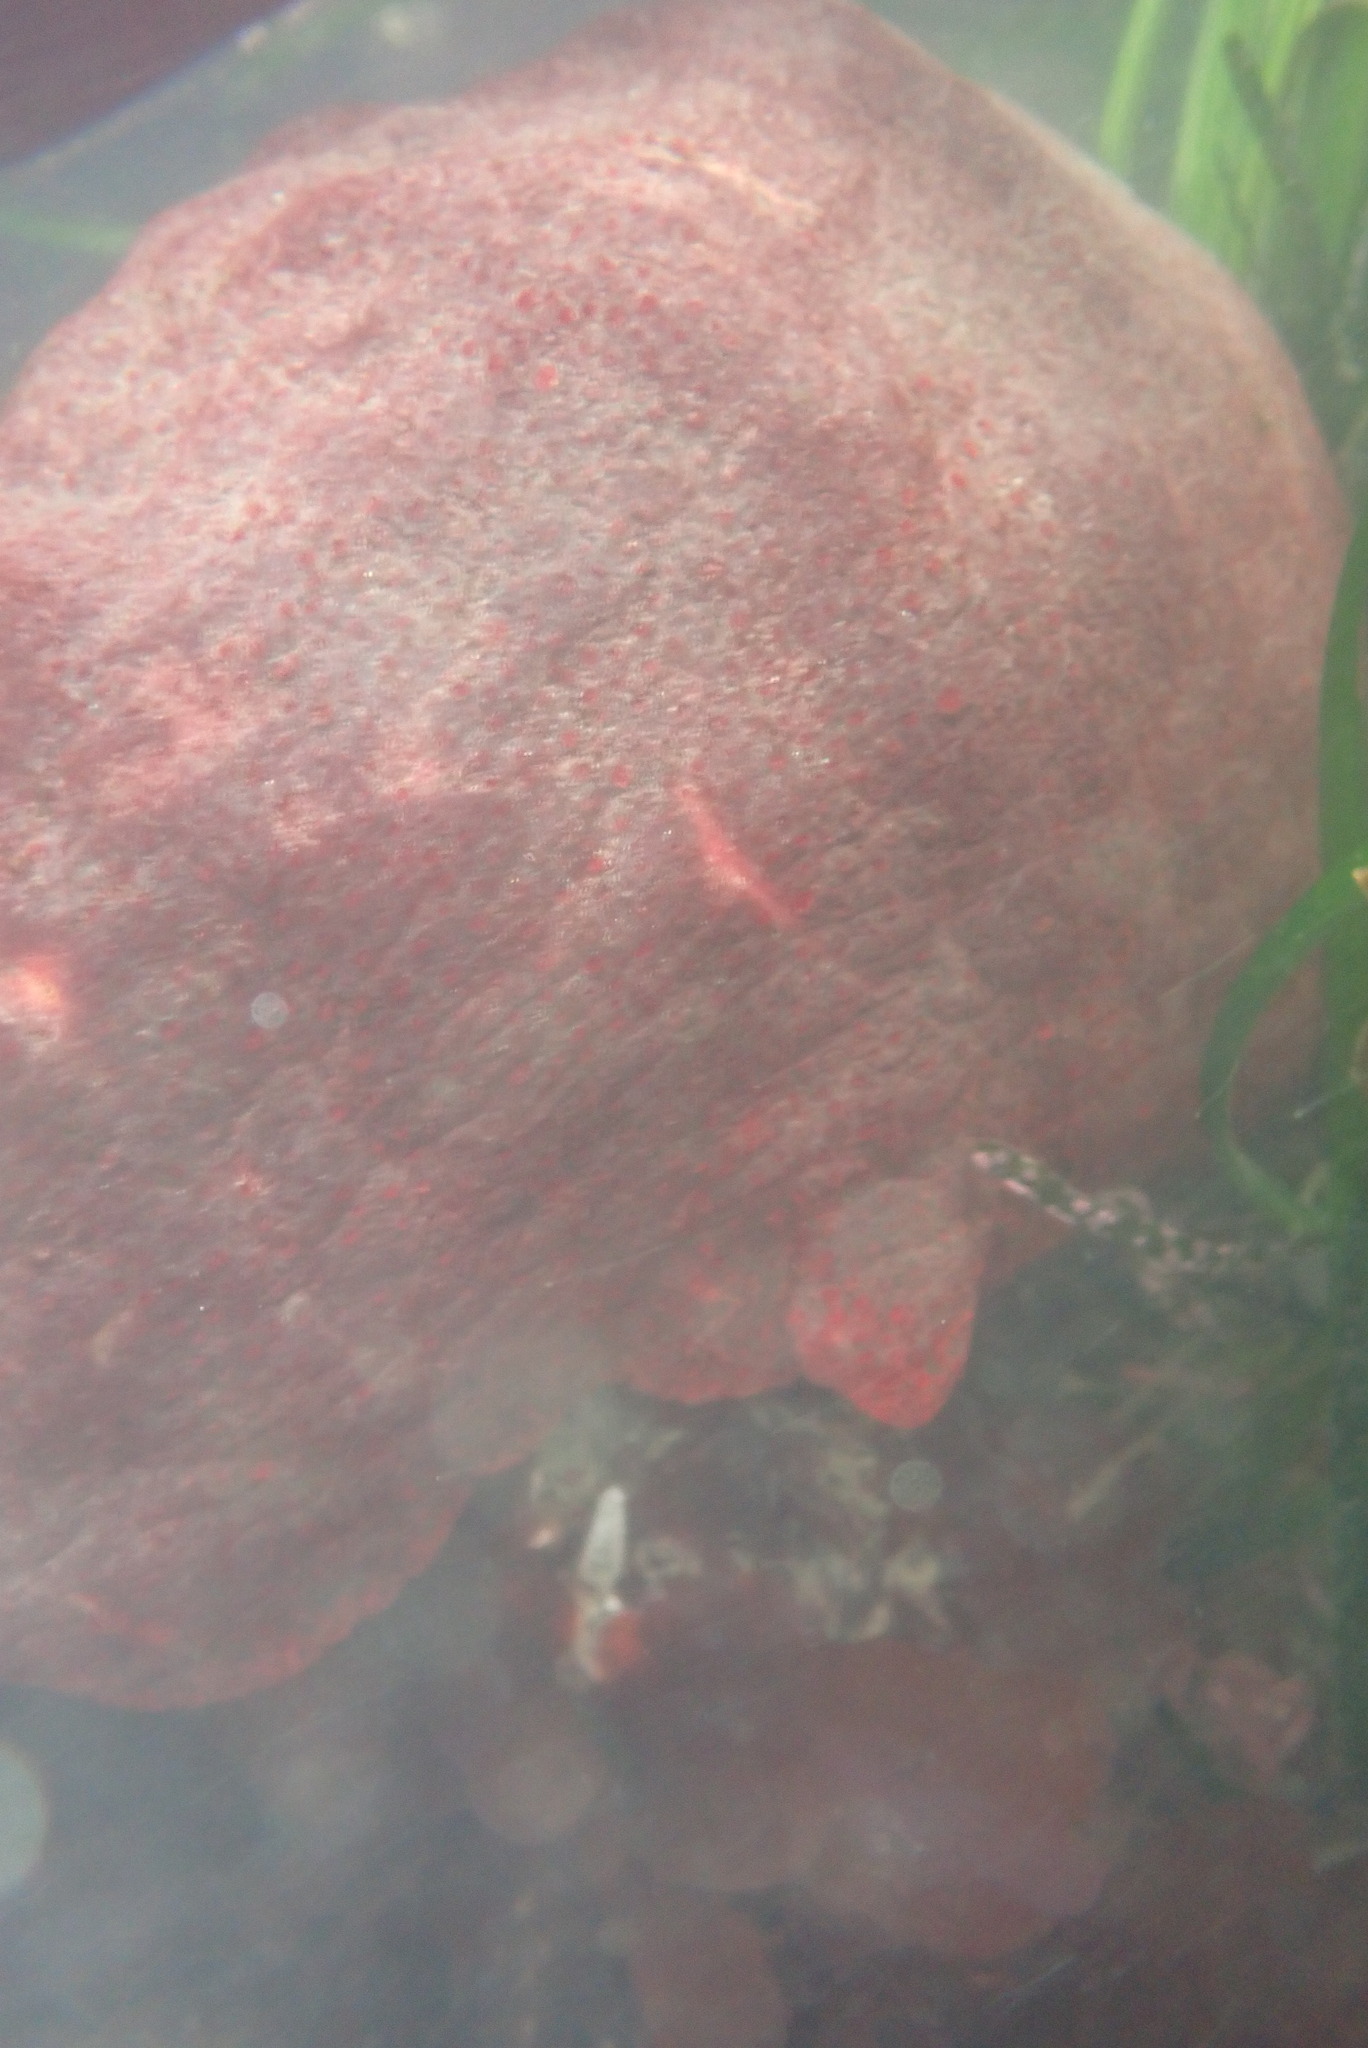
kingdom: Animalia
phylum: Mollusca
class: Polyplacophora
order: Chitonida
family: Acanthochitonidae
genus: Cryptochiton
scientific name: Cryptochiton stelleri
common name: Giant pacific chiton
